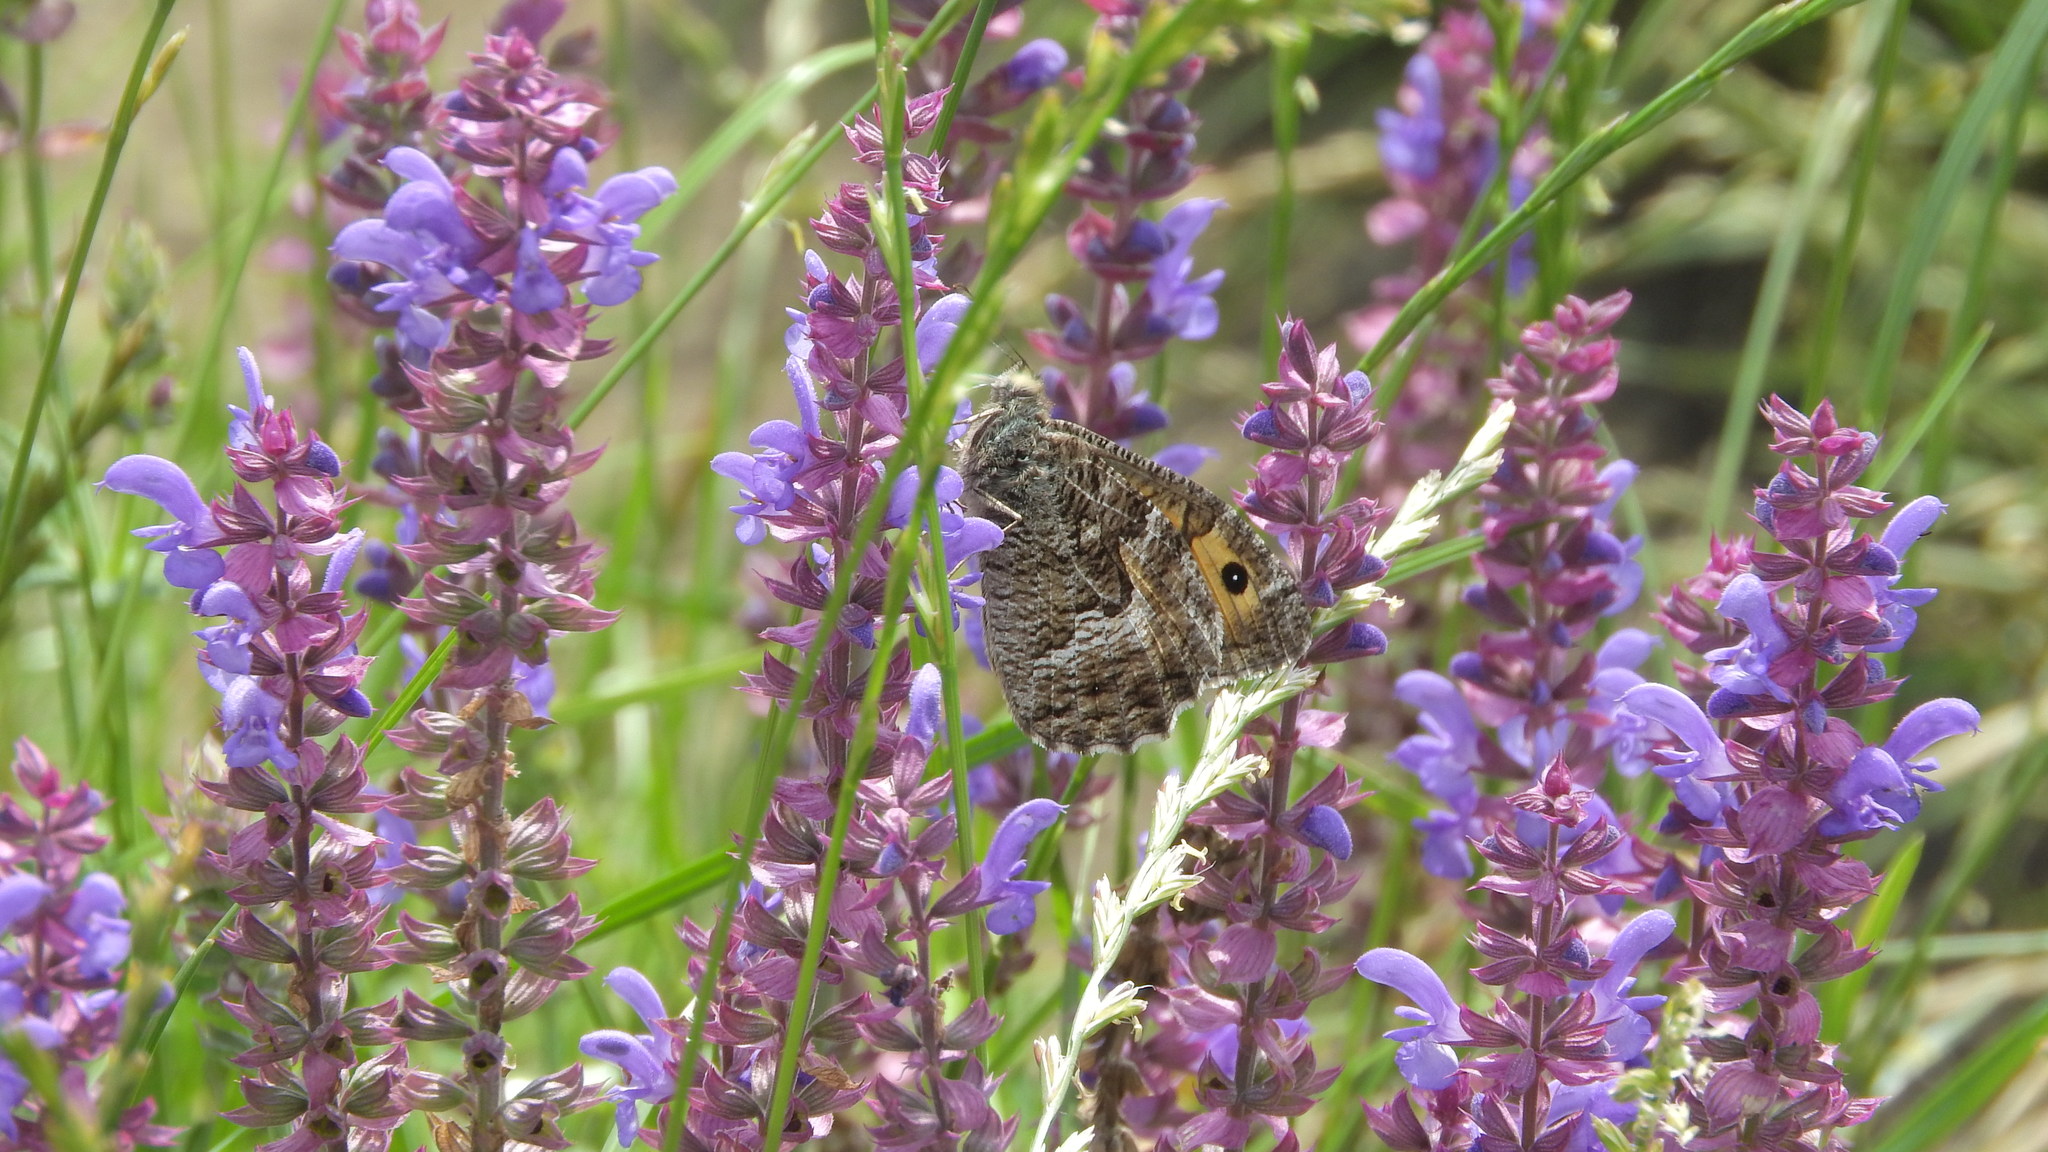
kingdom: Animalia
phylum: Arthropoda
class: Insecta
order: Lepidoptera
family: Nymphalidae
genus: Hipparchia
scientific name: Hipparchia semele
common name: Grayling
